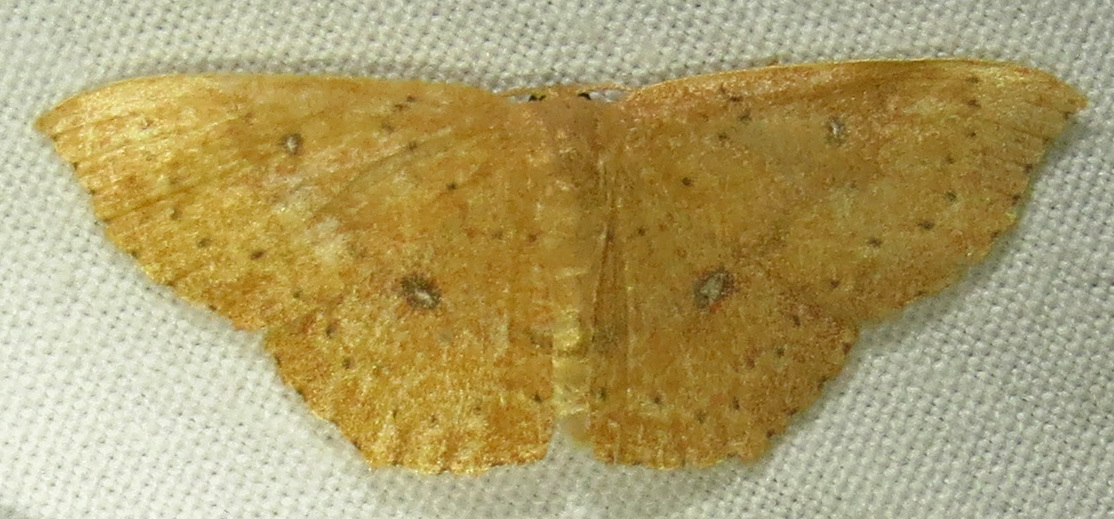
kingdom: Animalia
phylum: Arthropoda
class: Insecta
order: Lepidoptera
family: Geometridae
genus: Cyclophora
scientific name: Cyclophora packardi
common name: Packard's wave
